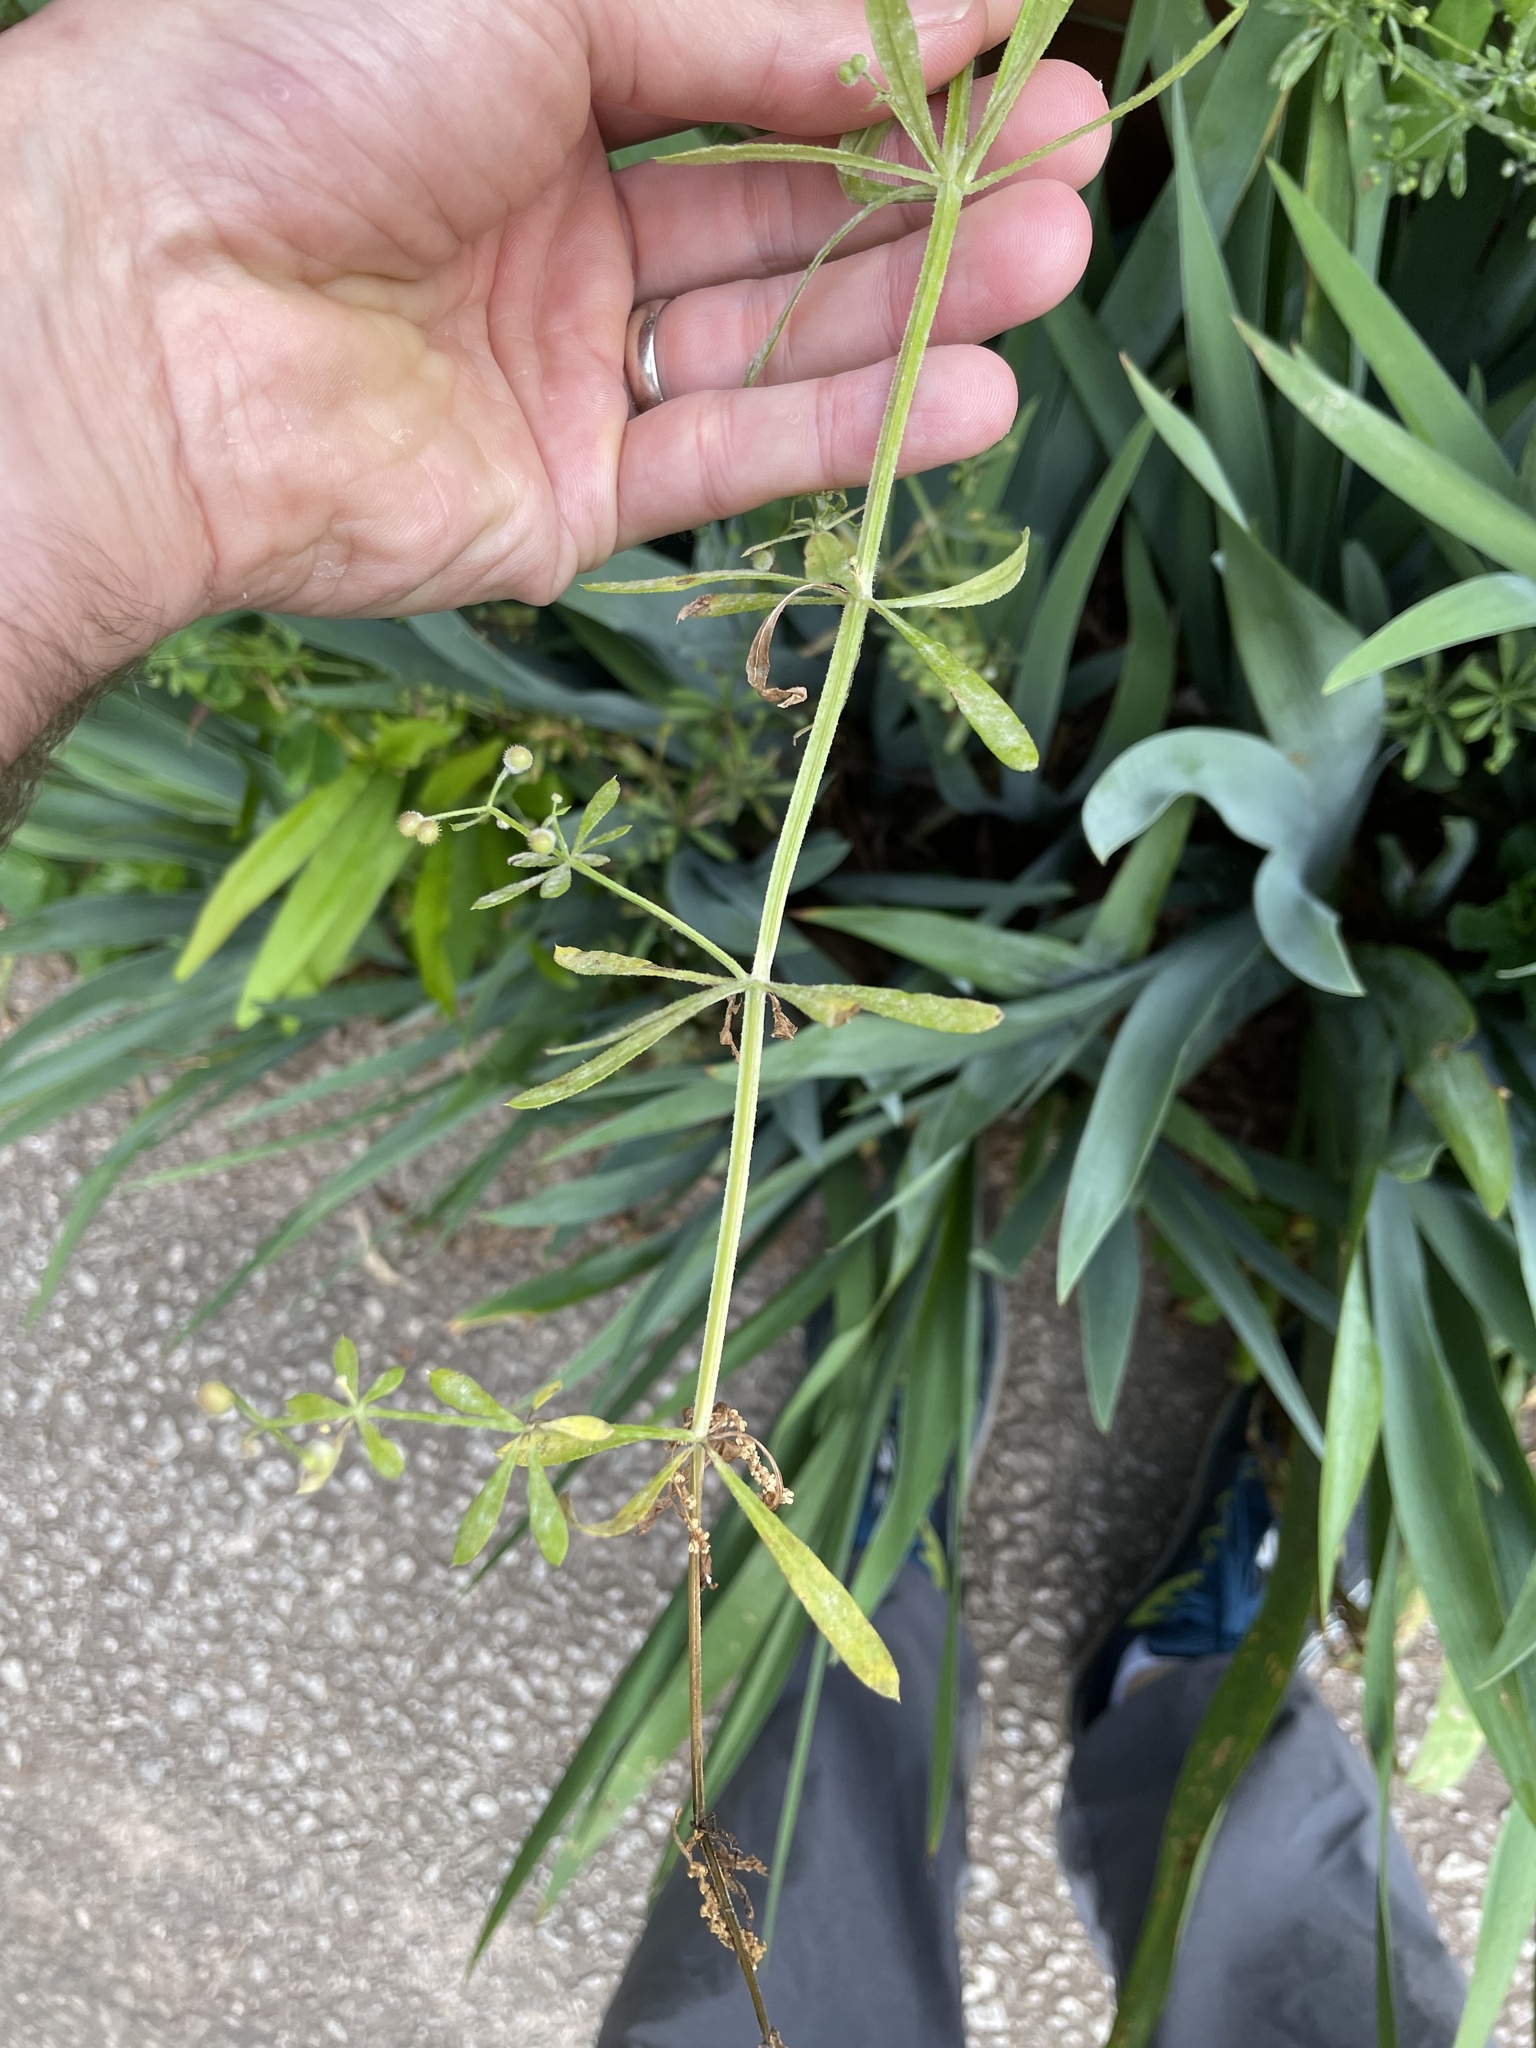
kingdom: Plantae
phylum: Tracheophyta
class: Magnoliopsida
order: Gentianales
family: Rubiaceae
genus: Galium
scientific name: Galium aparine
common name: Cleavers
